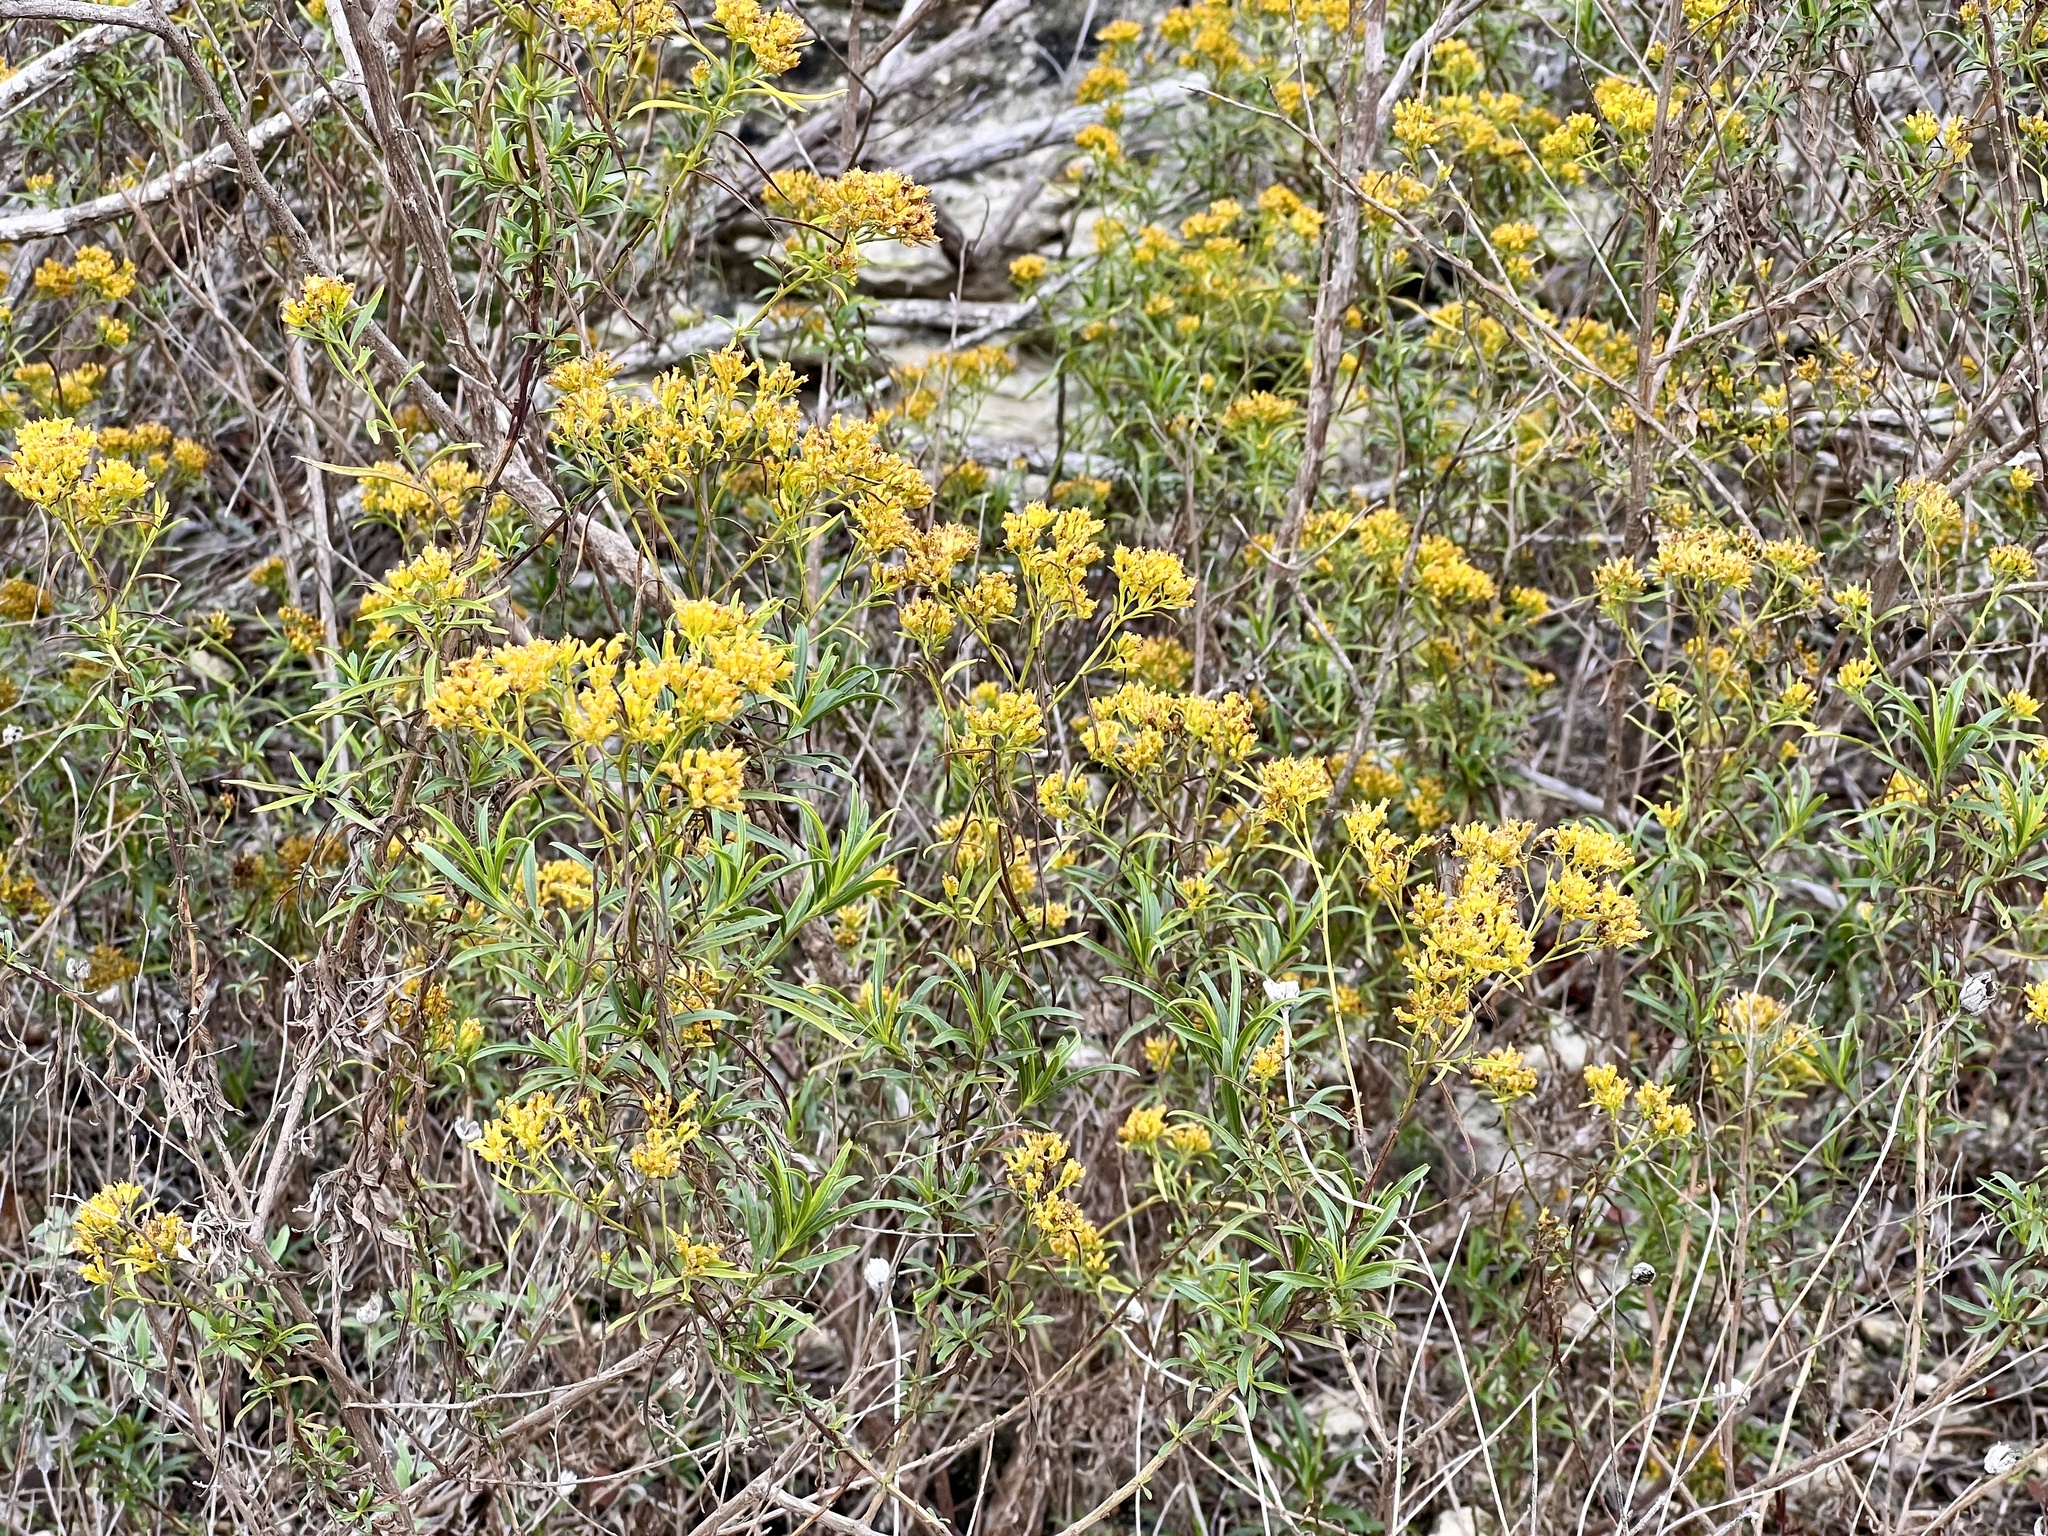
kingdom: Plantae
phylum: Tracheophyta
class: Magnoliopsida
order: Asterales
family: Asteraceae
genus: Gymnosperma
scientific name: Gymnosperma glutinosum
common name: Gumhead
